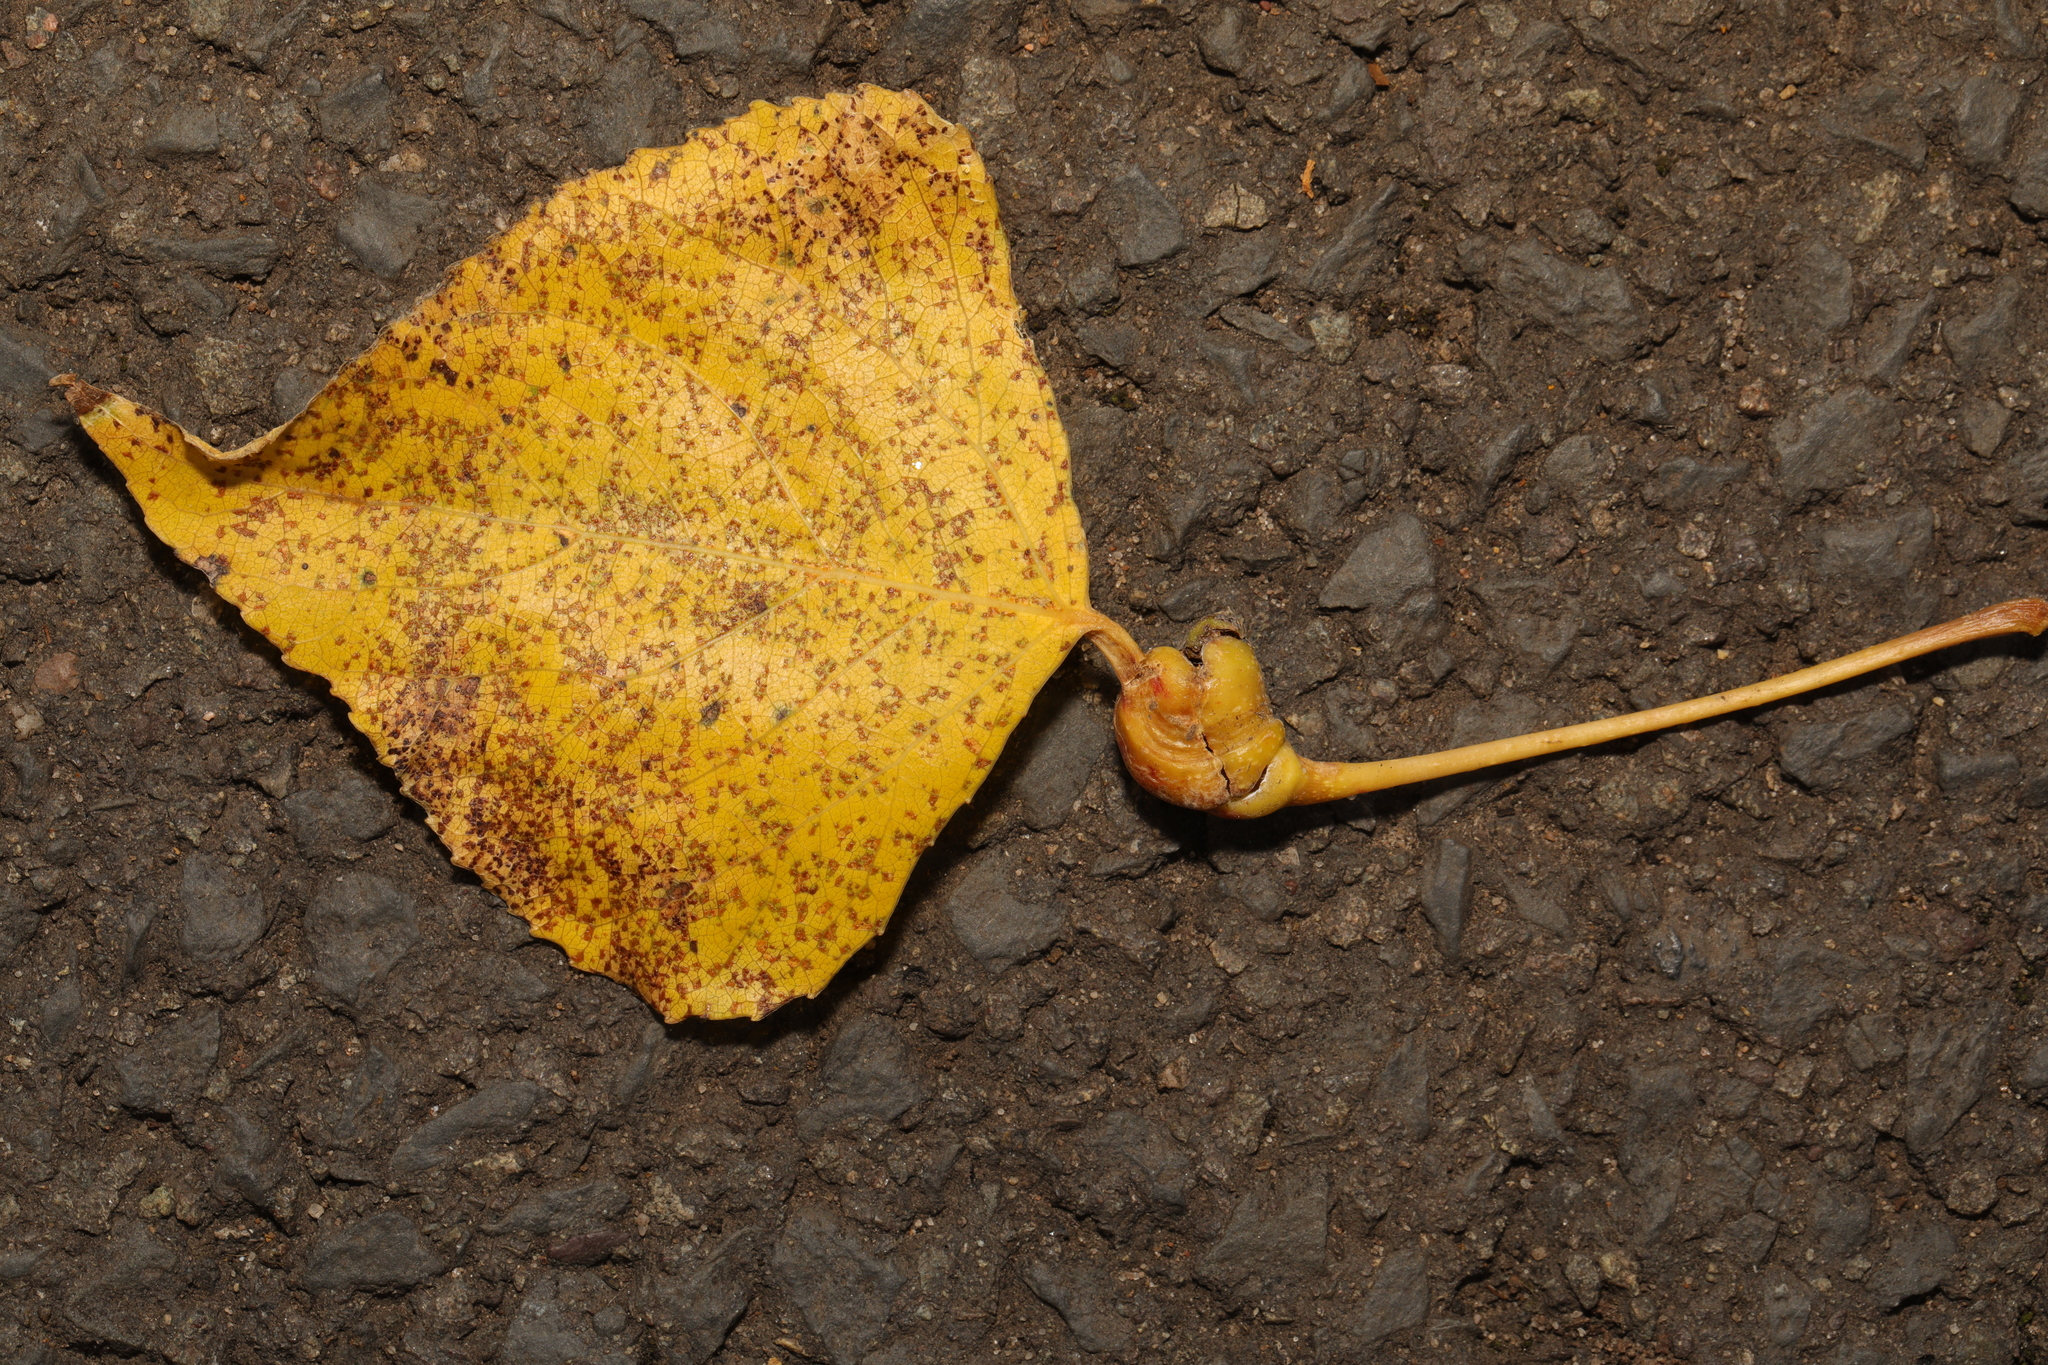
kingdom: Animalia
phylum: Arthropoda
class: Insecta
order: Hemiptera
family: Aphididae
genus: Pemphigus
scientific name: Pemphigus spyrothecae
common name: Aphid
